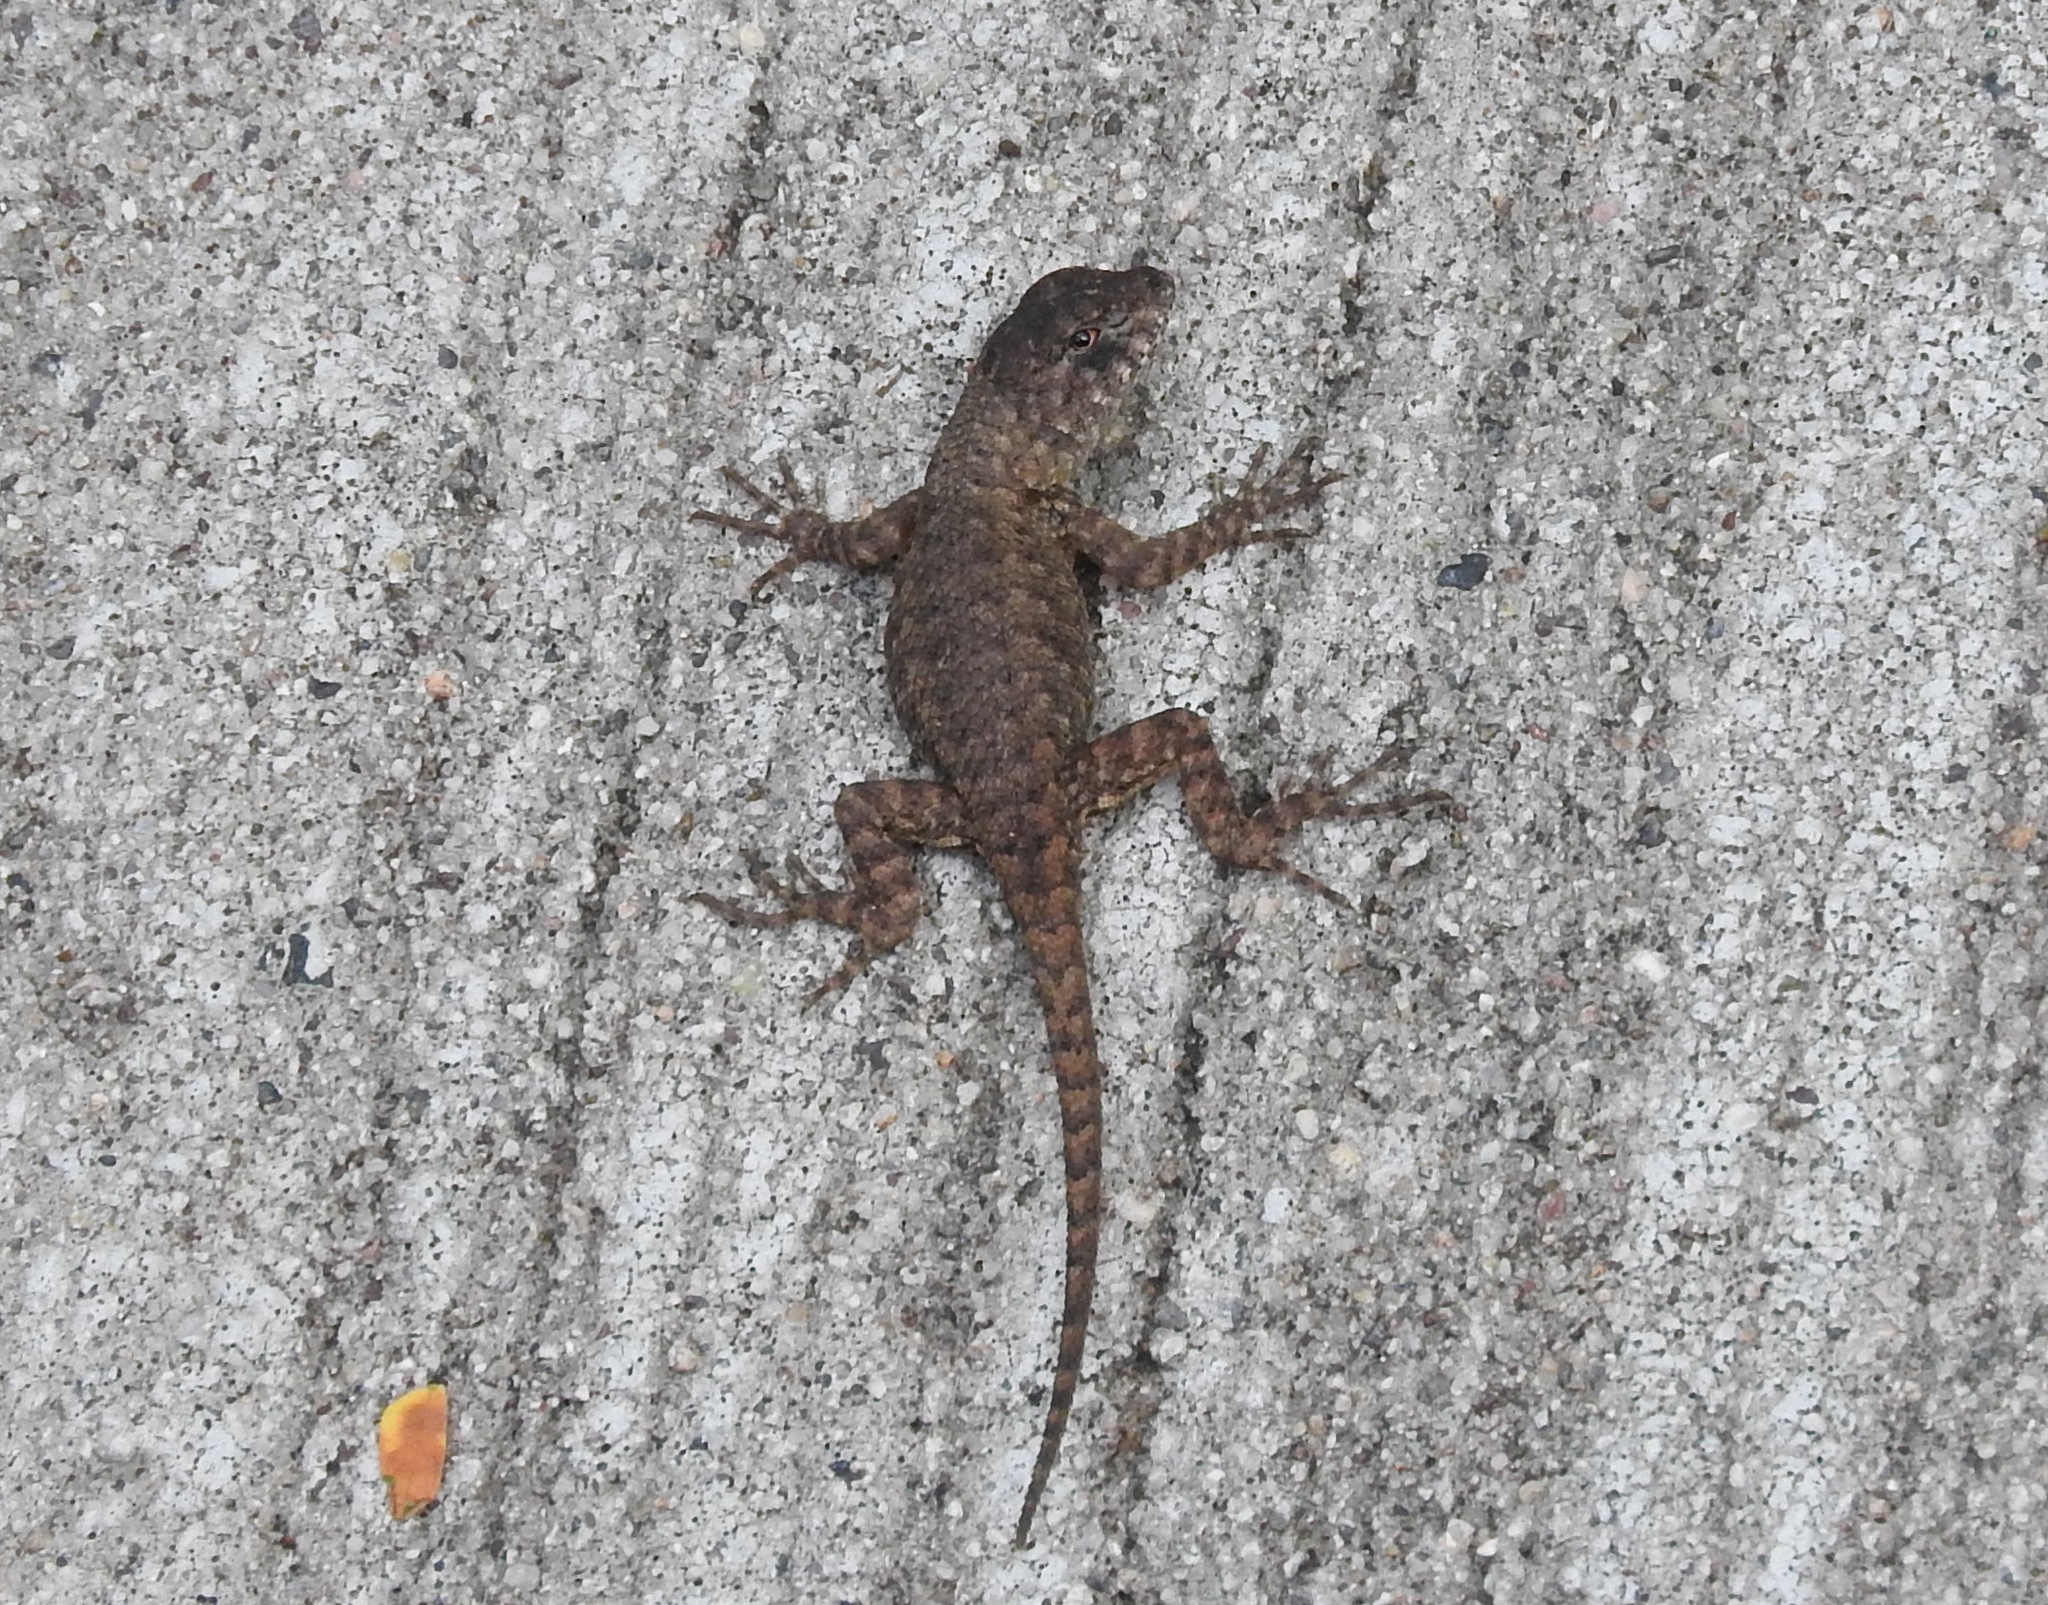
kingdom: Animalia
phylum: Chordata
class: Squamata
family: Phrynosomatidae
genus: Sceloporus
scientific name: Sceloporus nelsoni
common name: Nelson's spiny lizard
